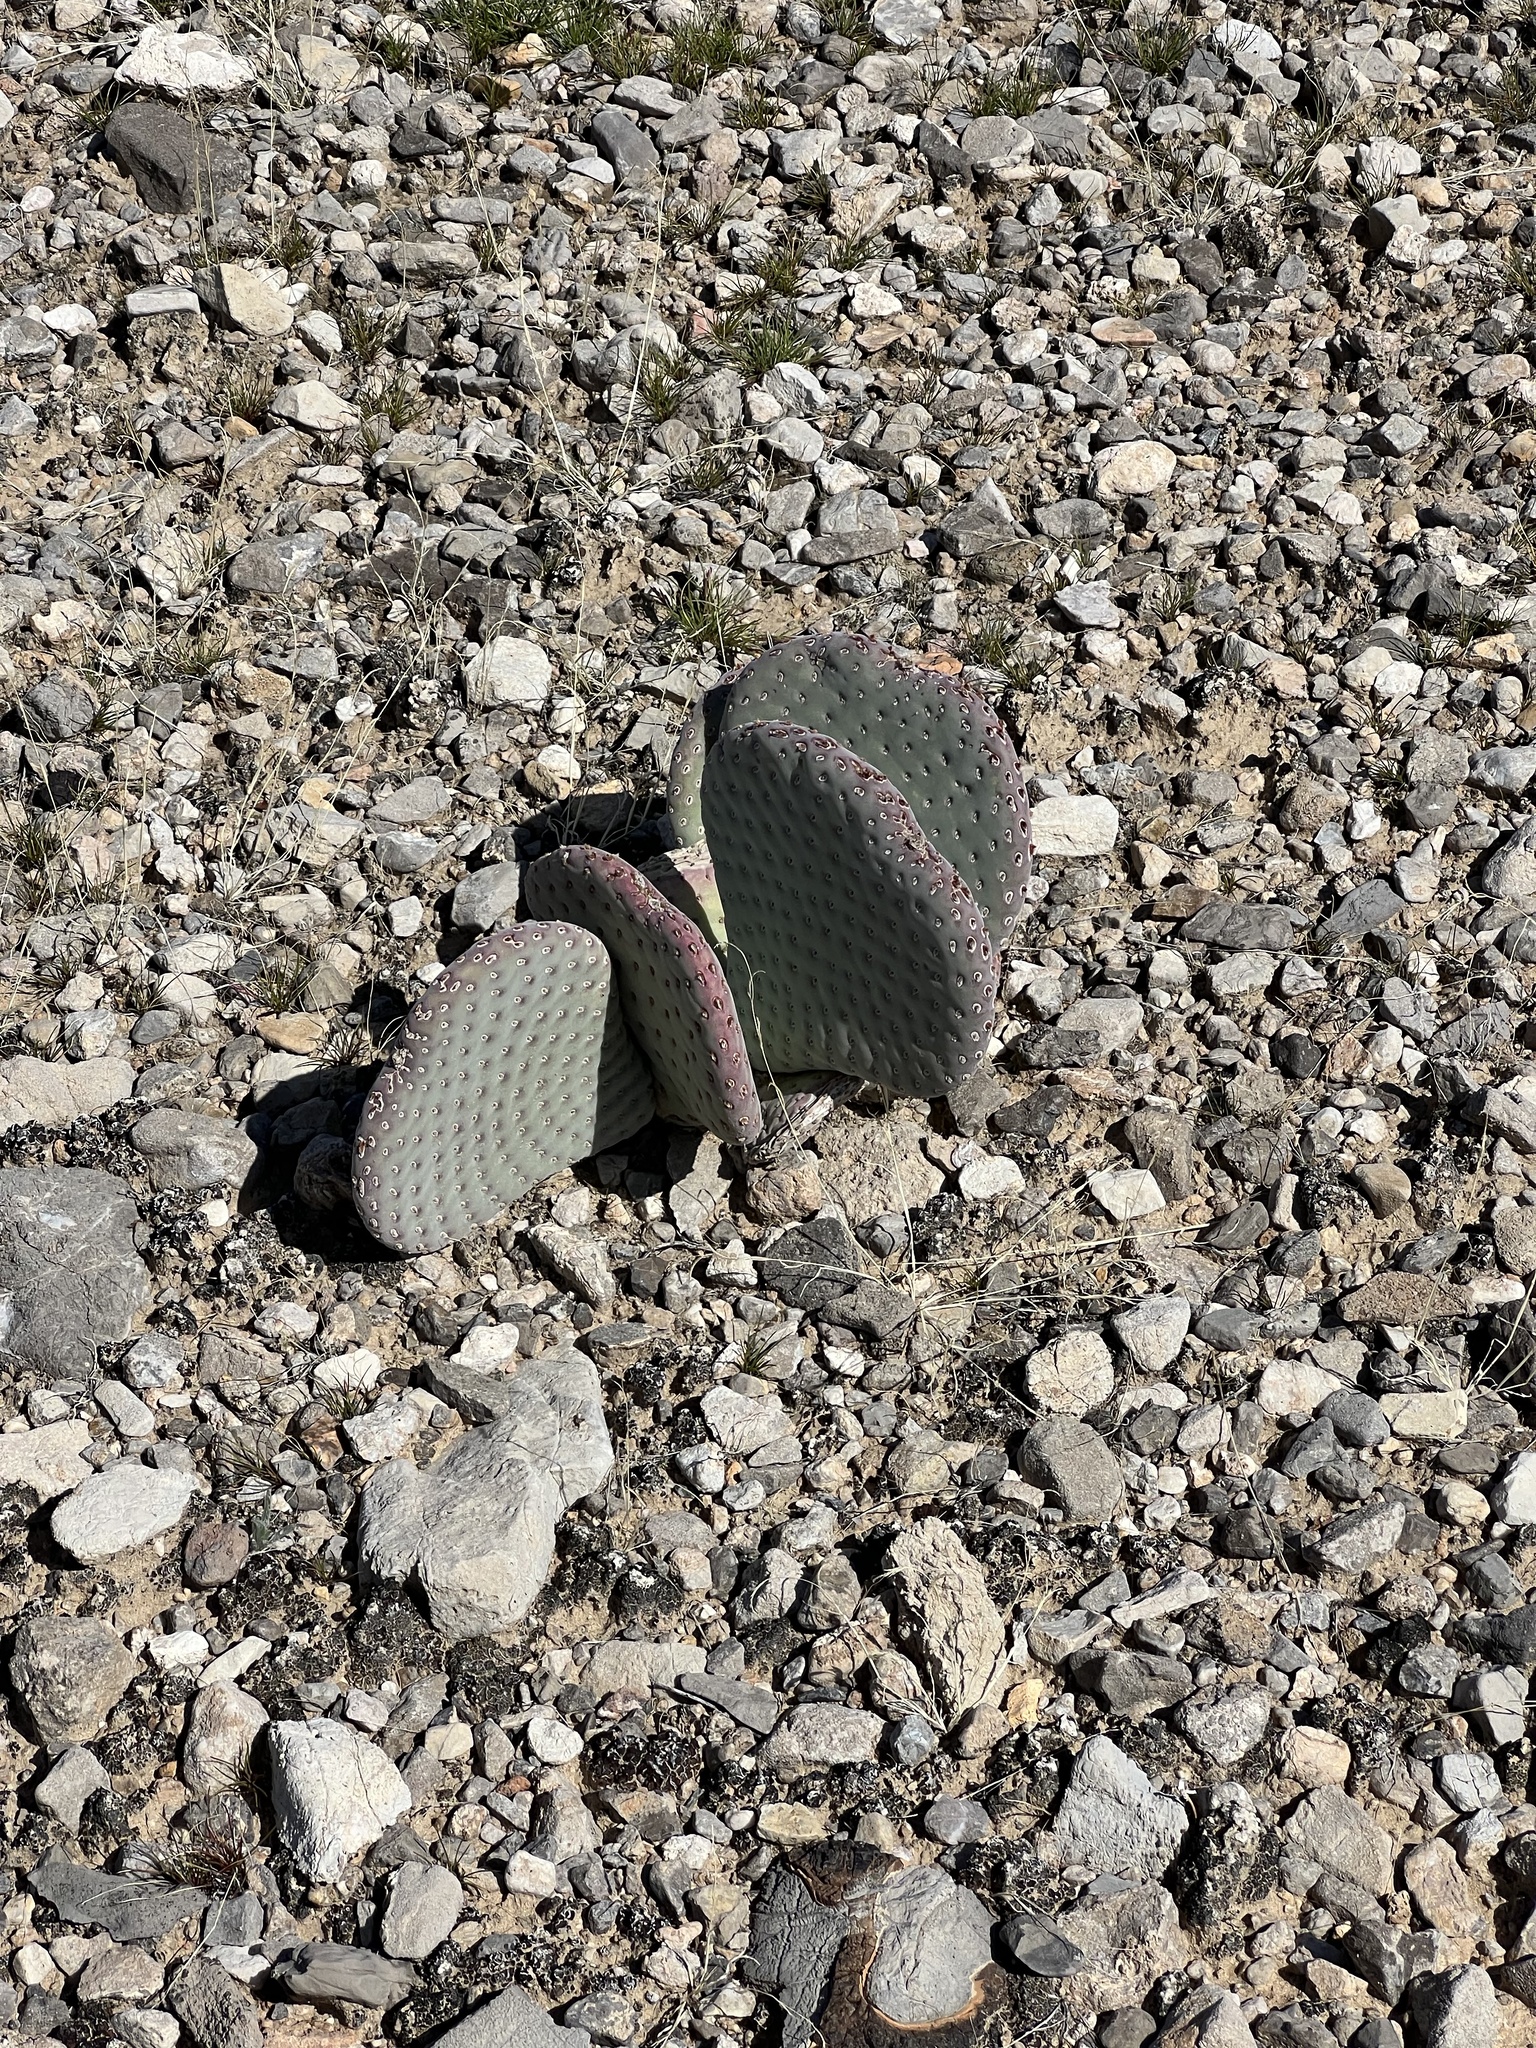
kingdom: Plantae
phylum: Tracheophyta
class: Magnoliopsida
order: Caryophyllales
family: Cactaceae
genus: Opuntia
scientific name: Opuntia basilaris
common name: Beavertail prickly-pear
